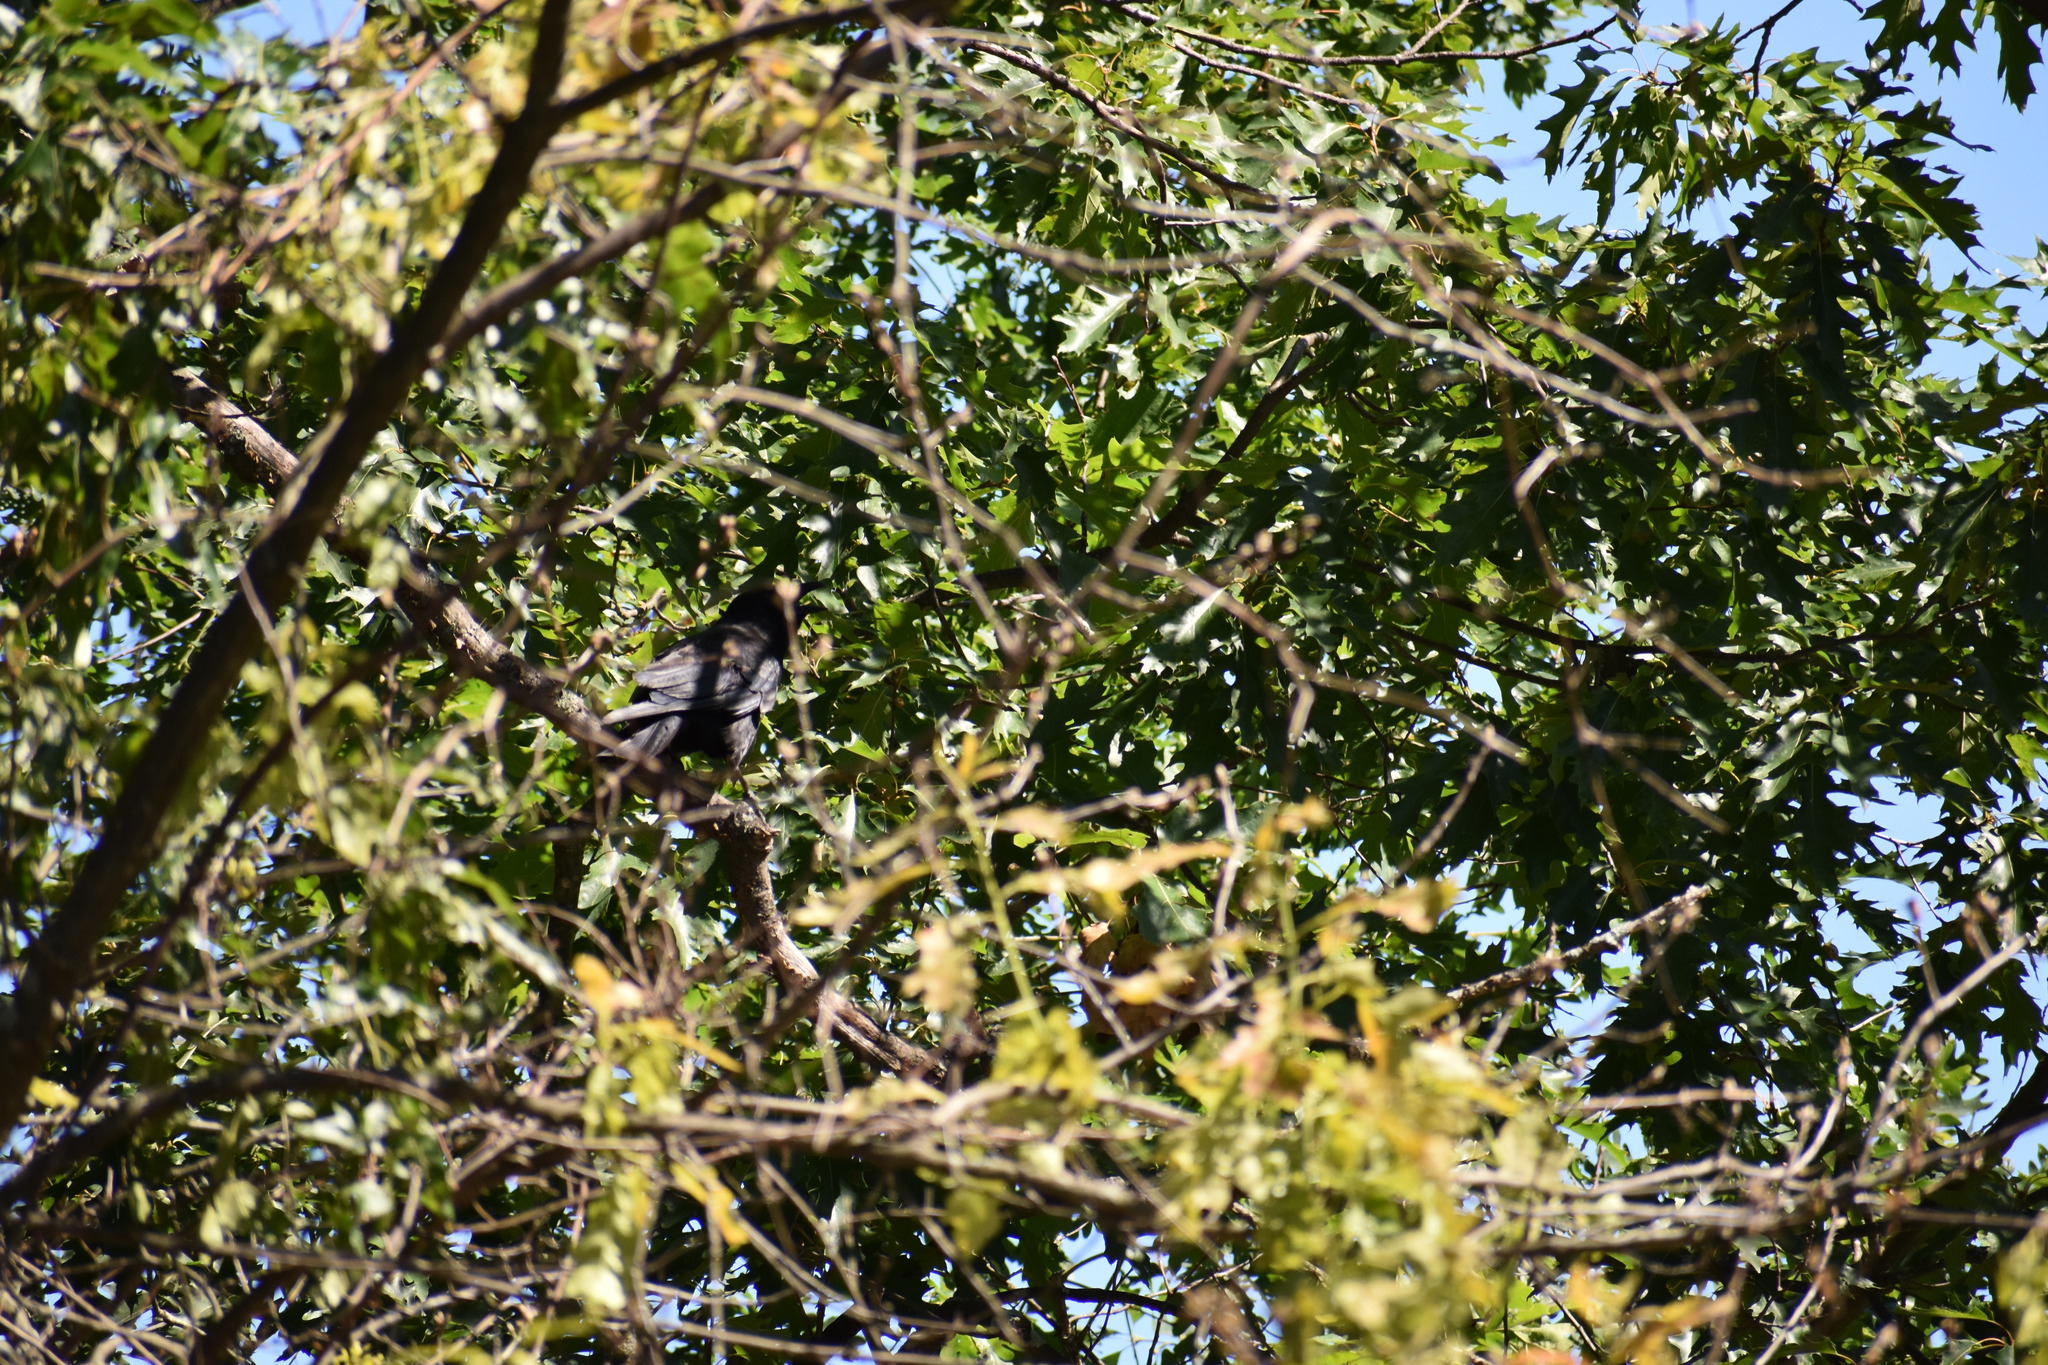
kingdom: Animalia
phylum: Chordata
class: Aves
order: Passeriformes
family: Corvidae
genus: Corvus
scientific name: Corvus brachyrhynchos
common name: American crow
